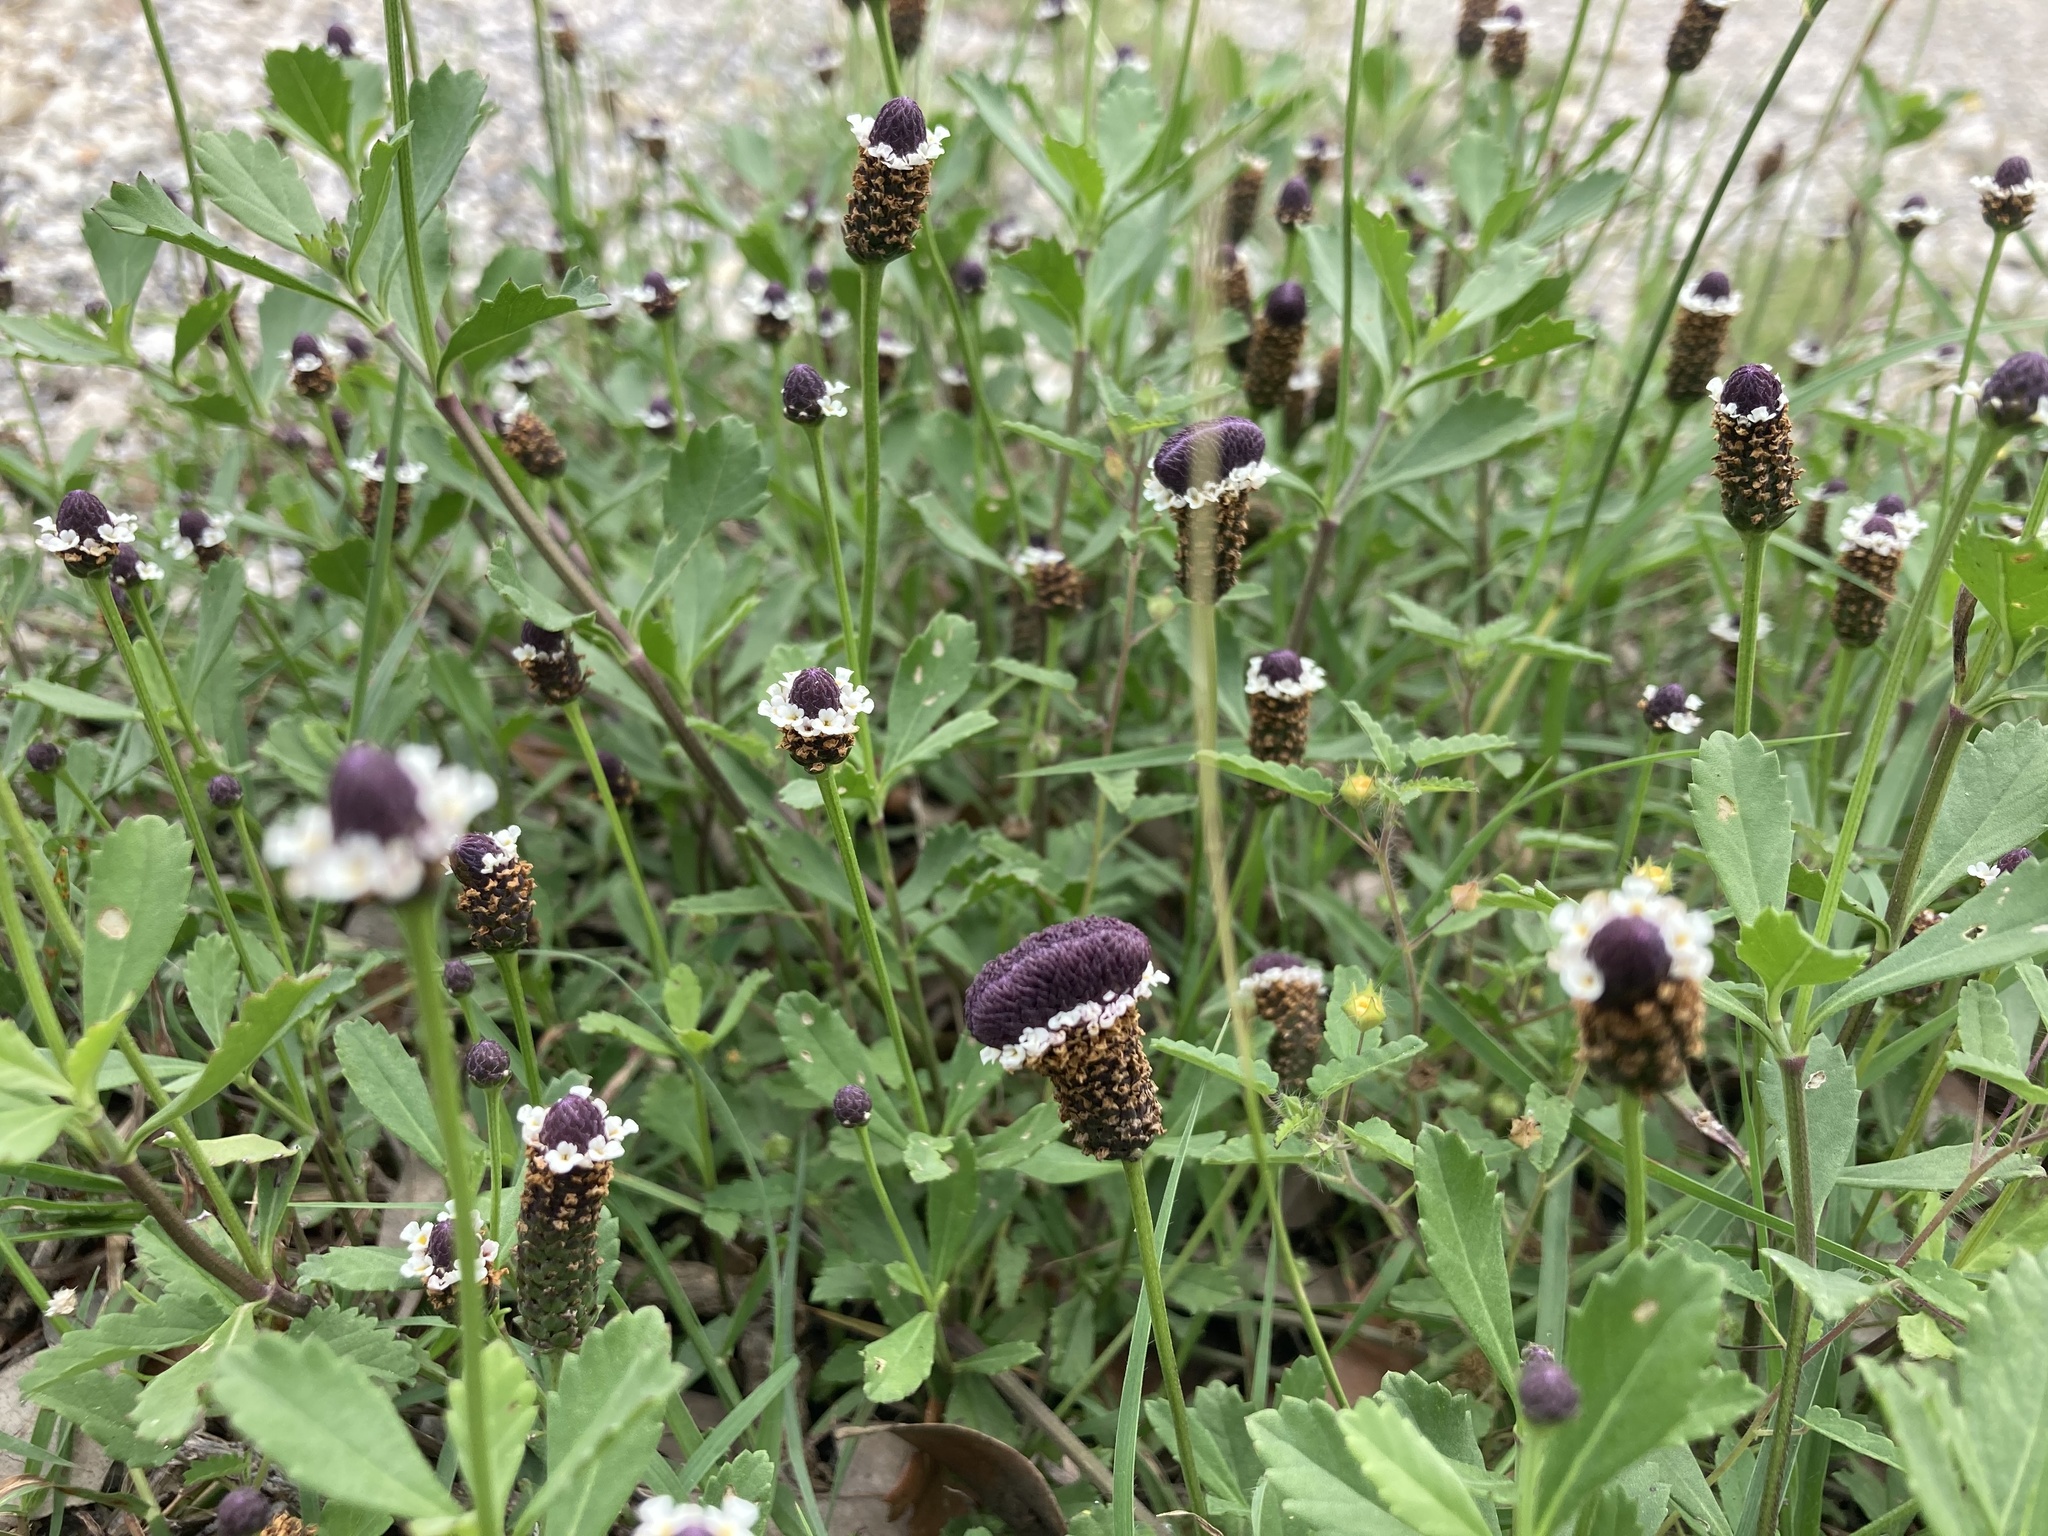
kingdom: Plantae
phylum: Tracheophyta
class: Magnoliopsida
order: Lamiales
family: Verbenaceae
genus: Phyla
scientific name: Phyla nodiflora
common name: Frogfruit
